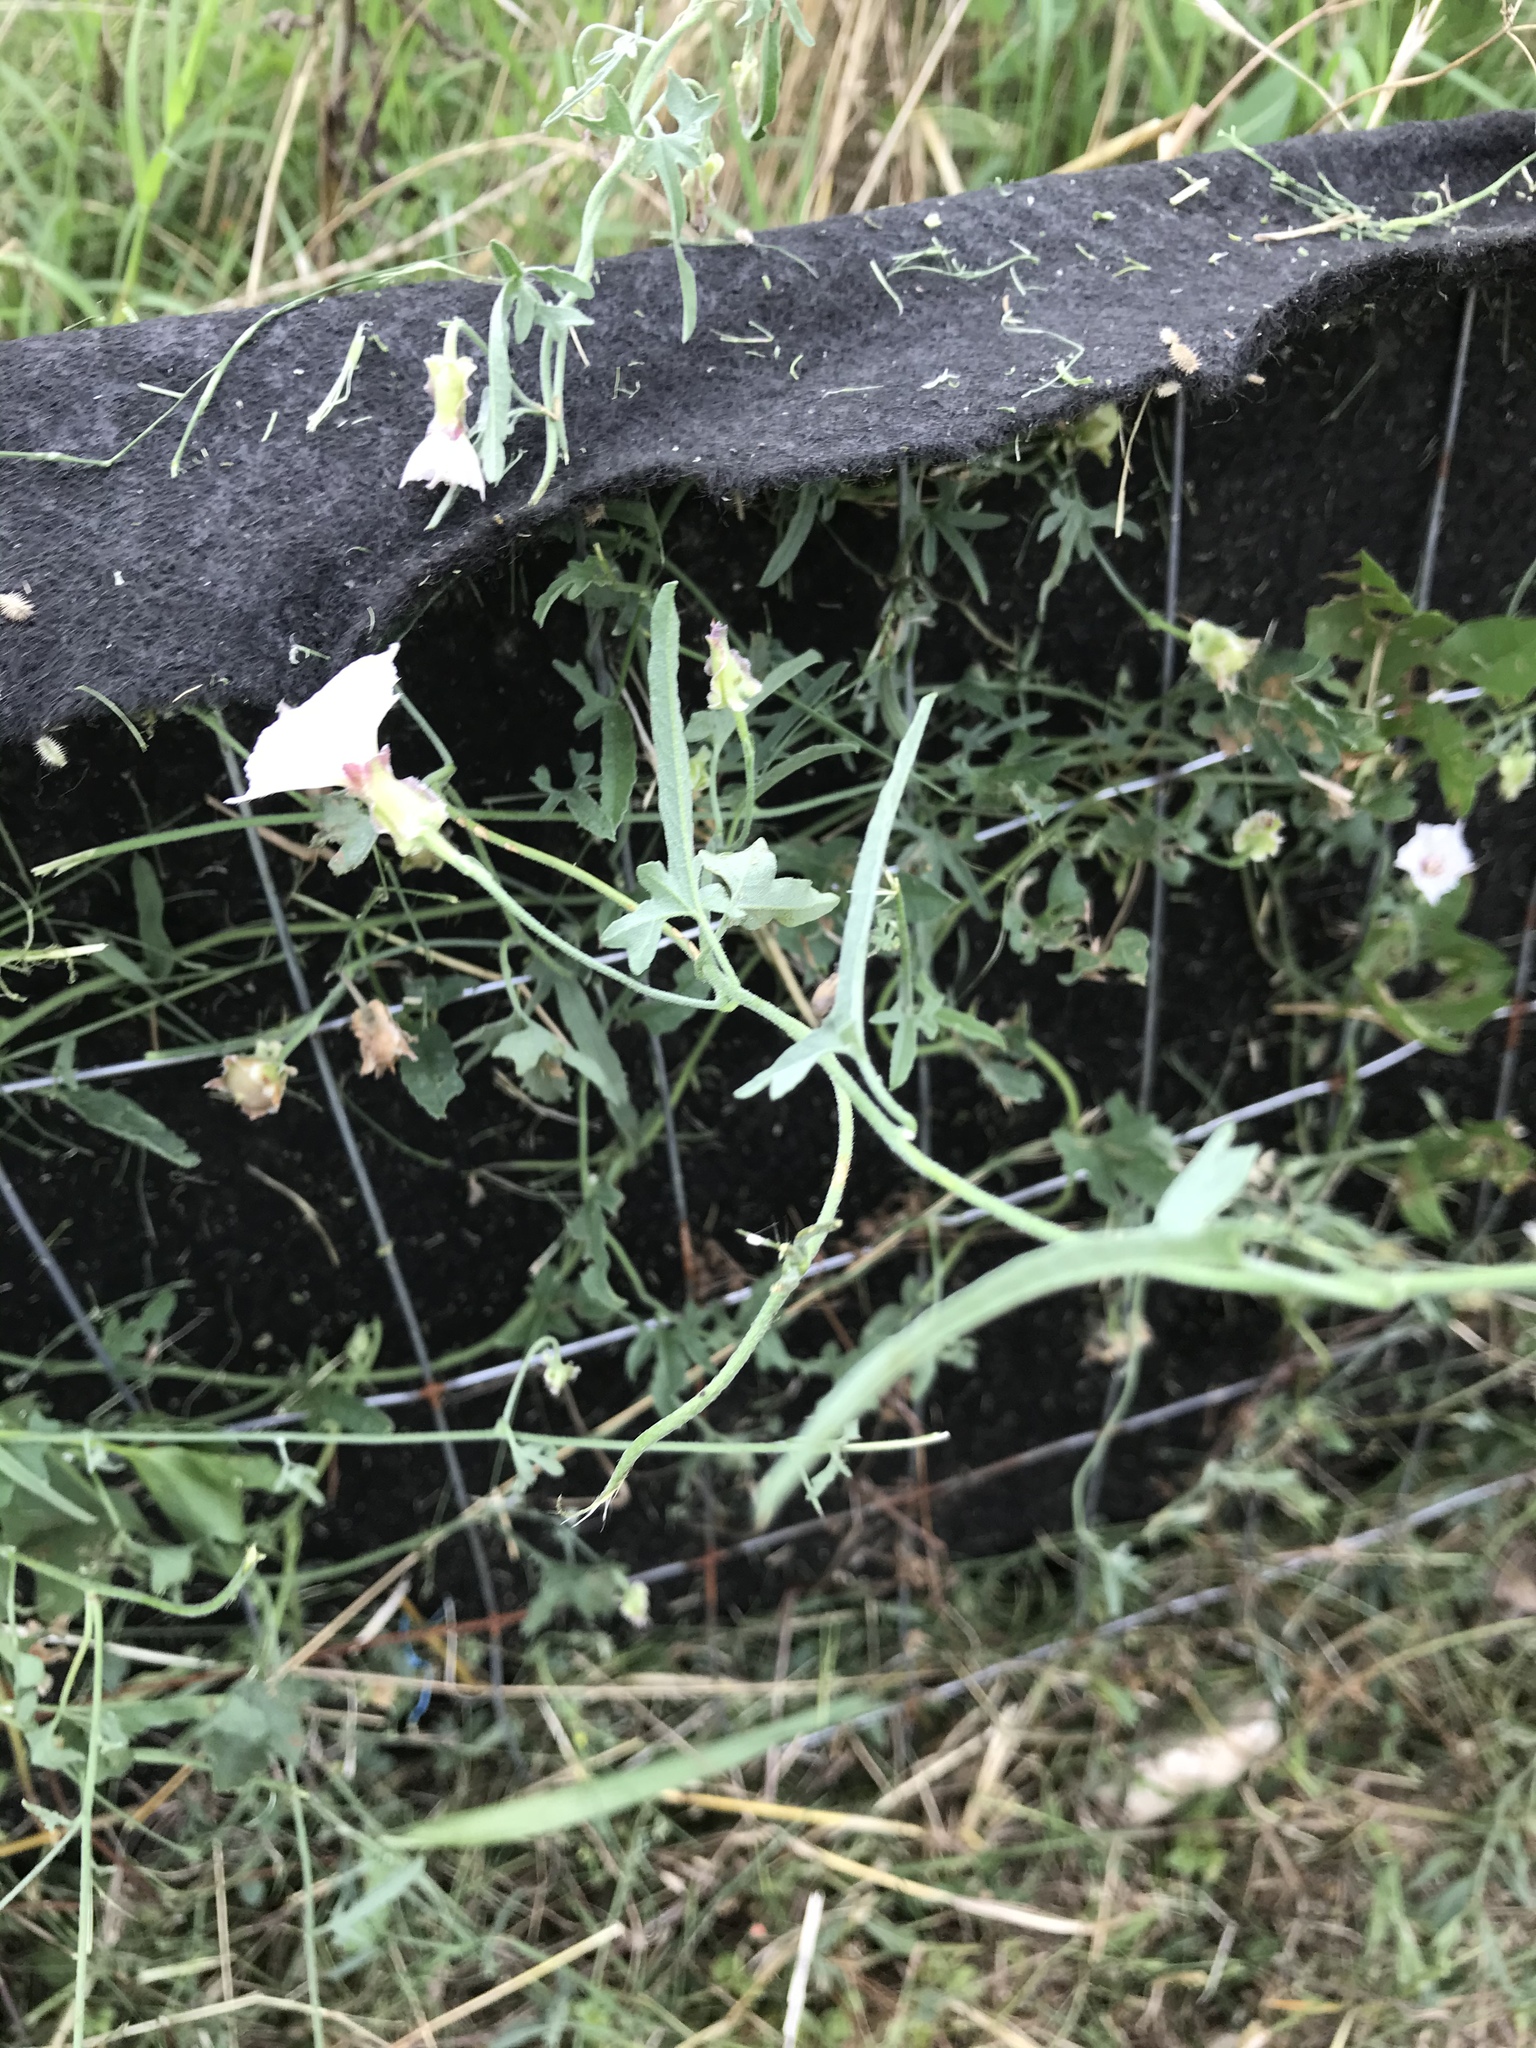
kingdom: Plantae
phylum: Tracheophyta
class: Magnoliopsida
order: Solanales
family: Convolvulaceae
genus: Convolvulus
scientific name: Convolvulus equitans
